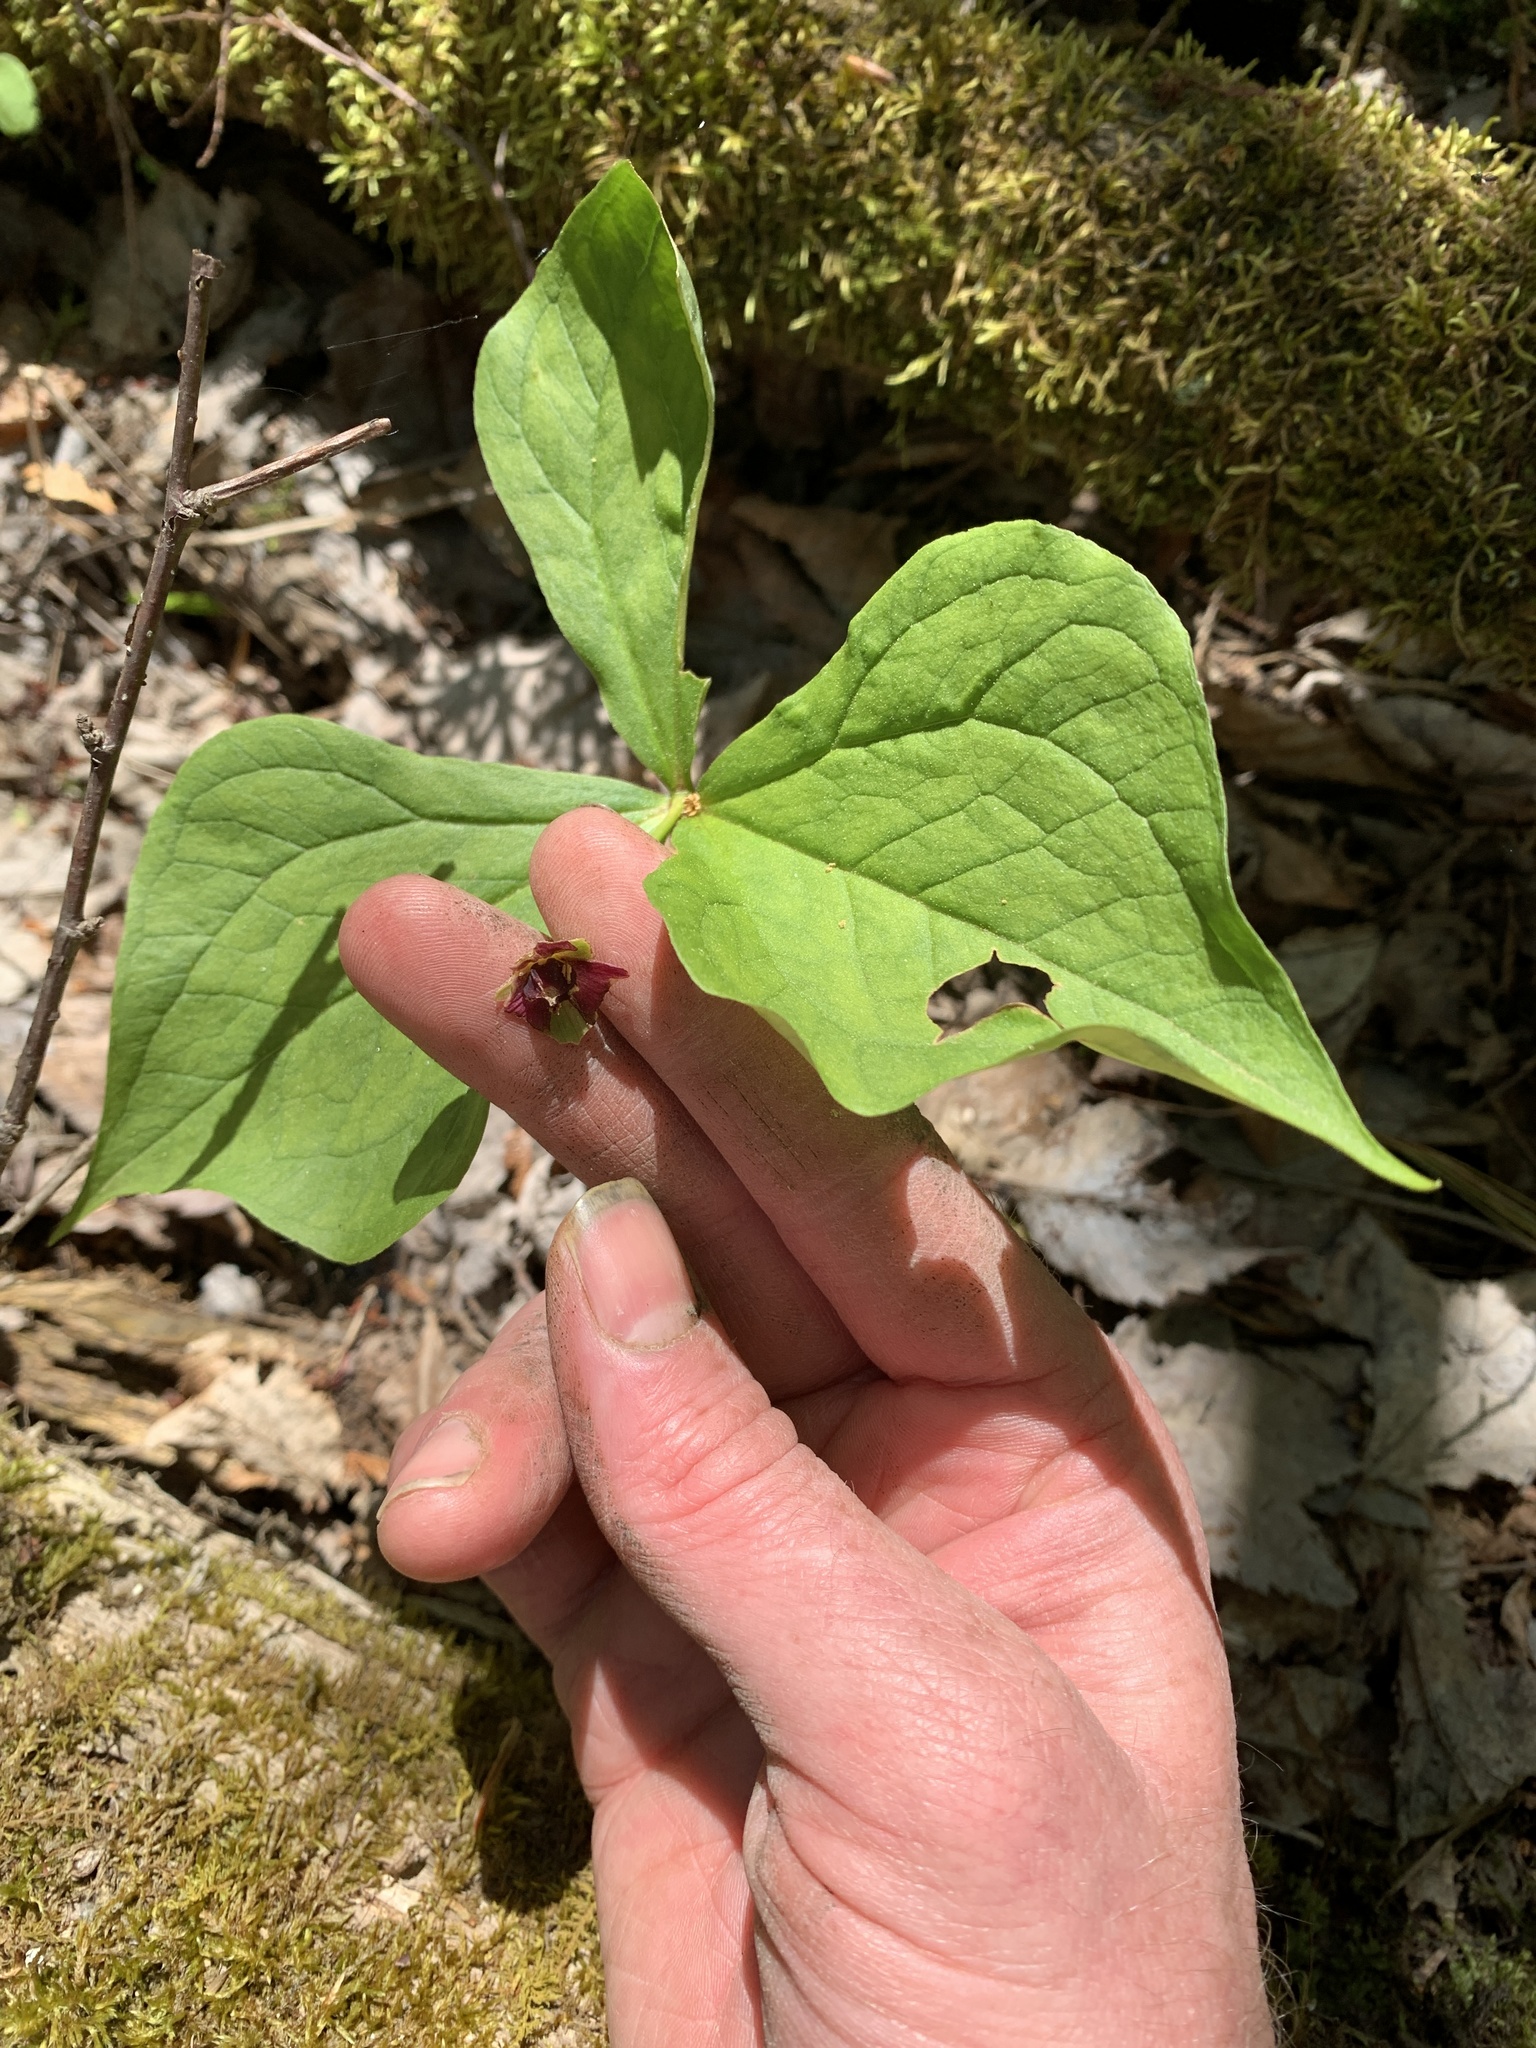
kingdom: Plantae
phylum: Tracheophyta
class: Liliopsida
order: Liliales
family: Melanthiaceae
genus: Trillium
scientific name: Trillium erectum
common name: Purple trillium
